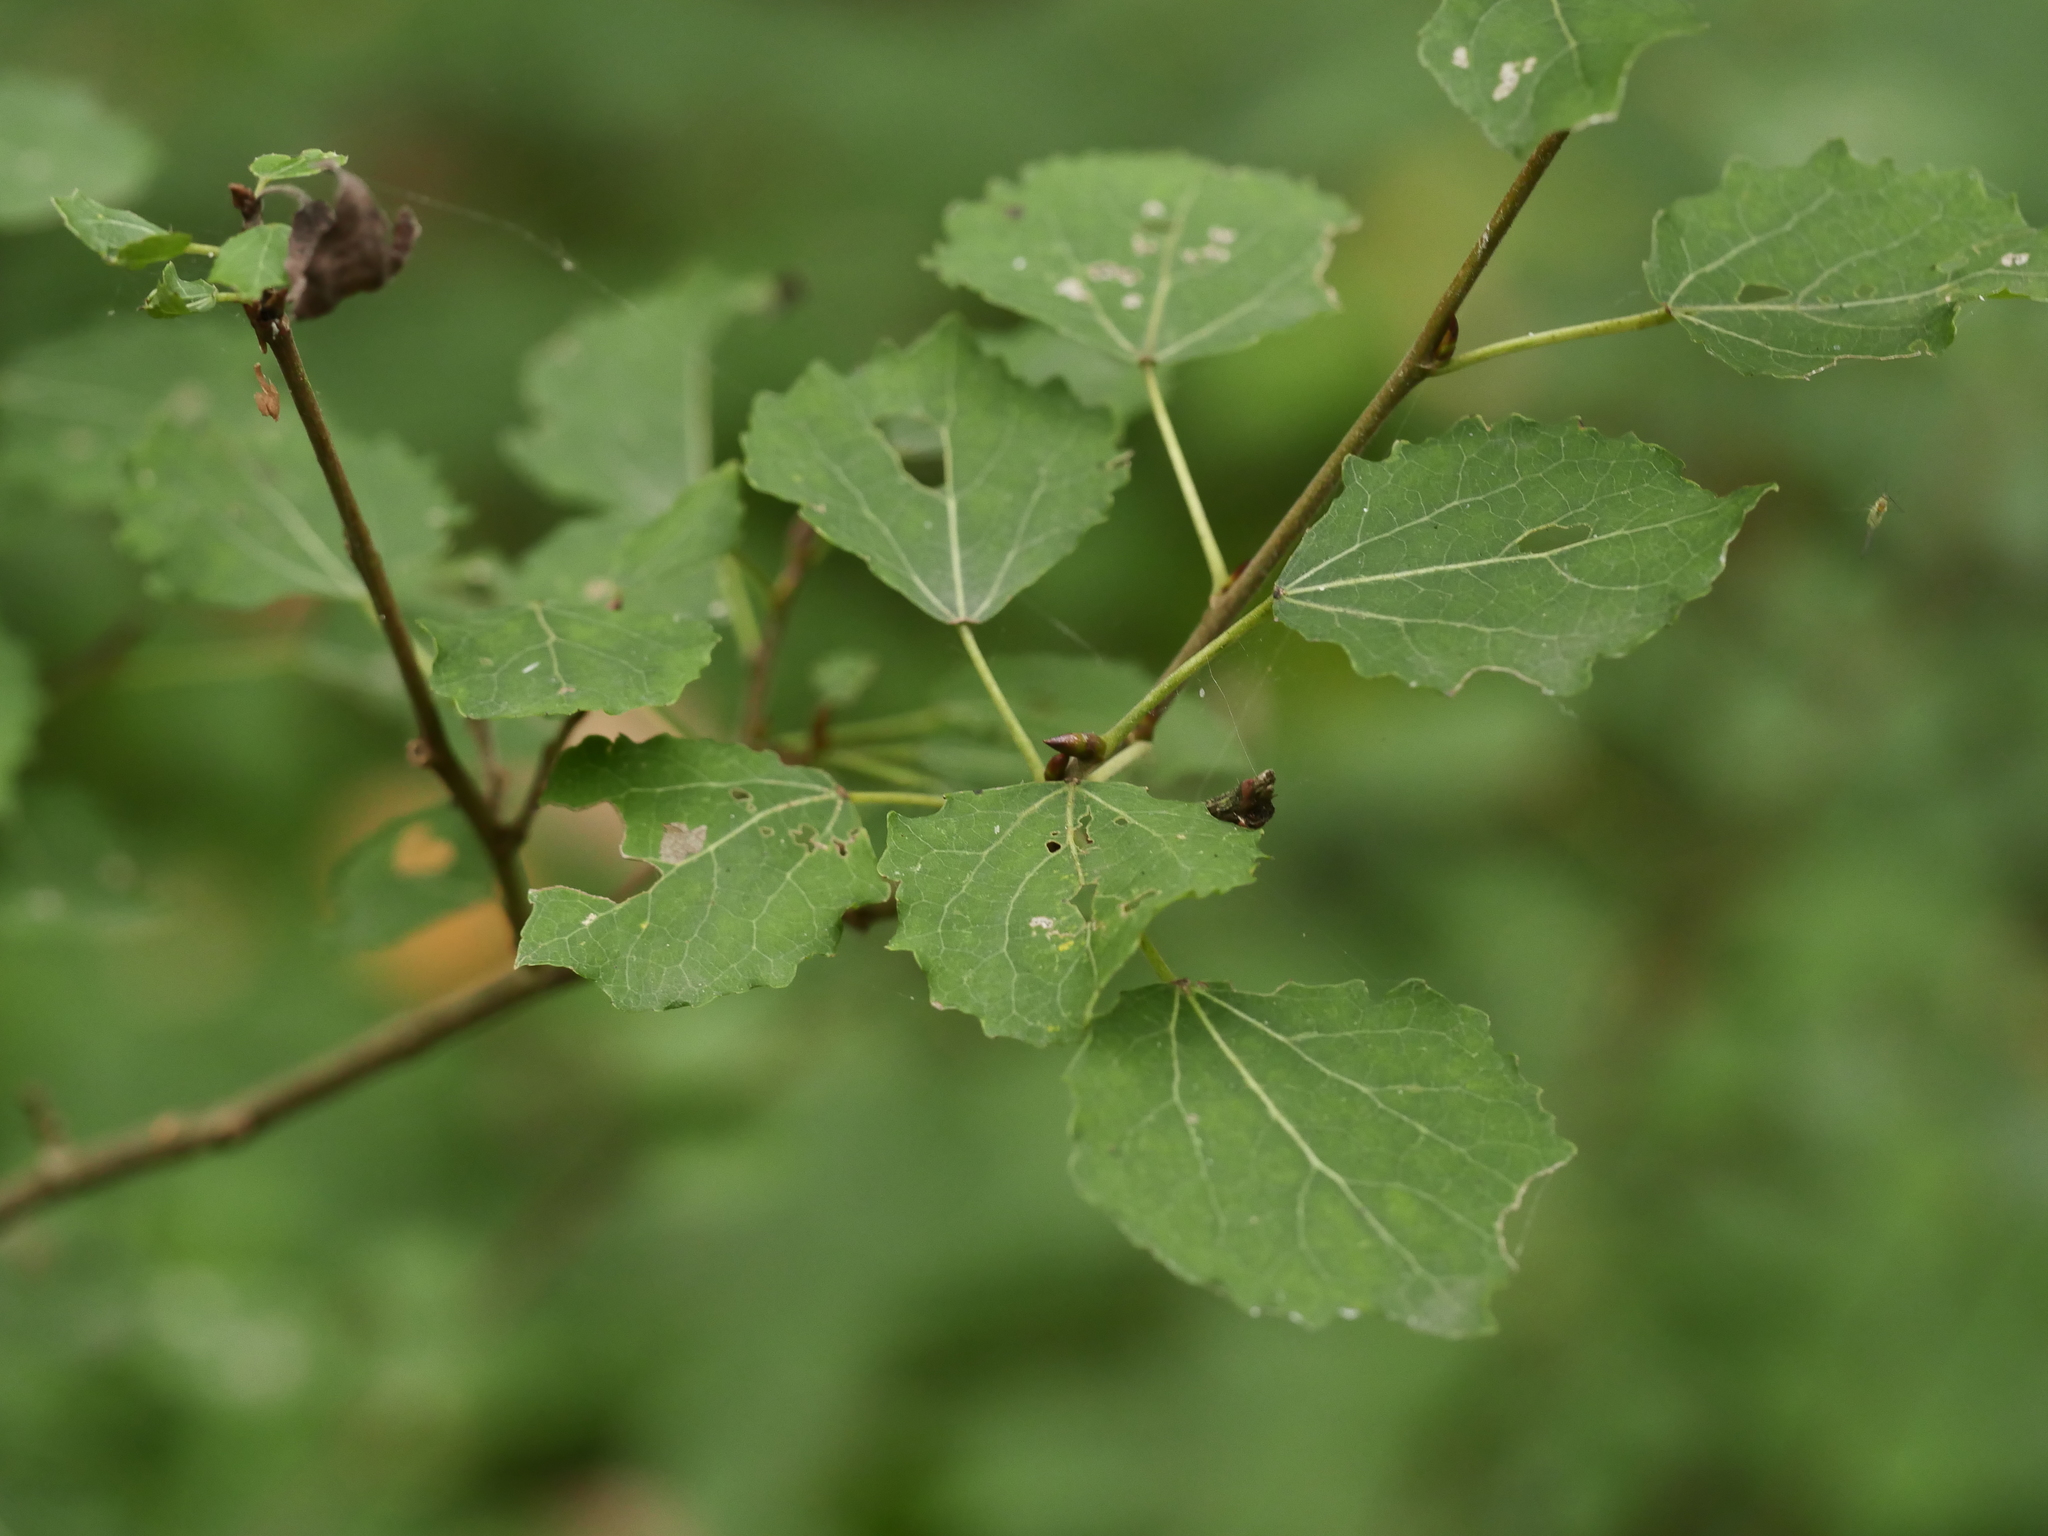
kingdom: Plantae
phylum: Tracheophyta
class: Magnoliopsida
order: Malpighiales
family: Salicaceae
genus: Populus
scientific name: Populus tremula
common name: European aspen
